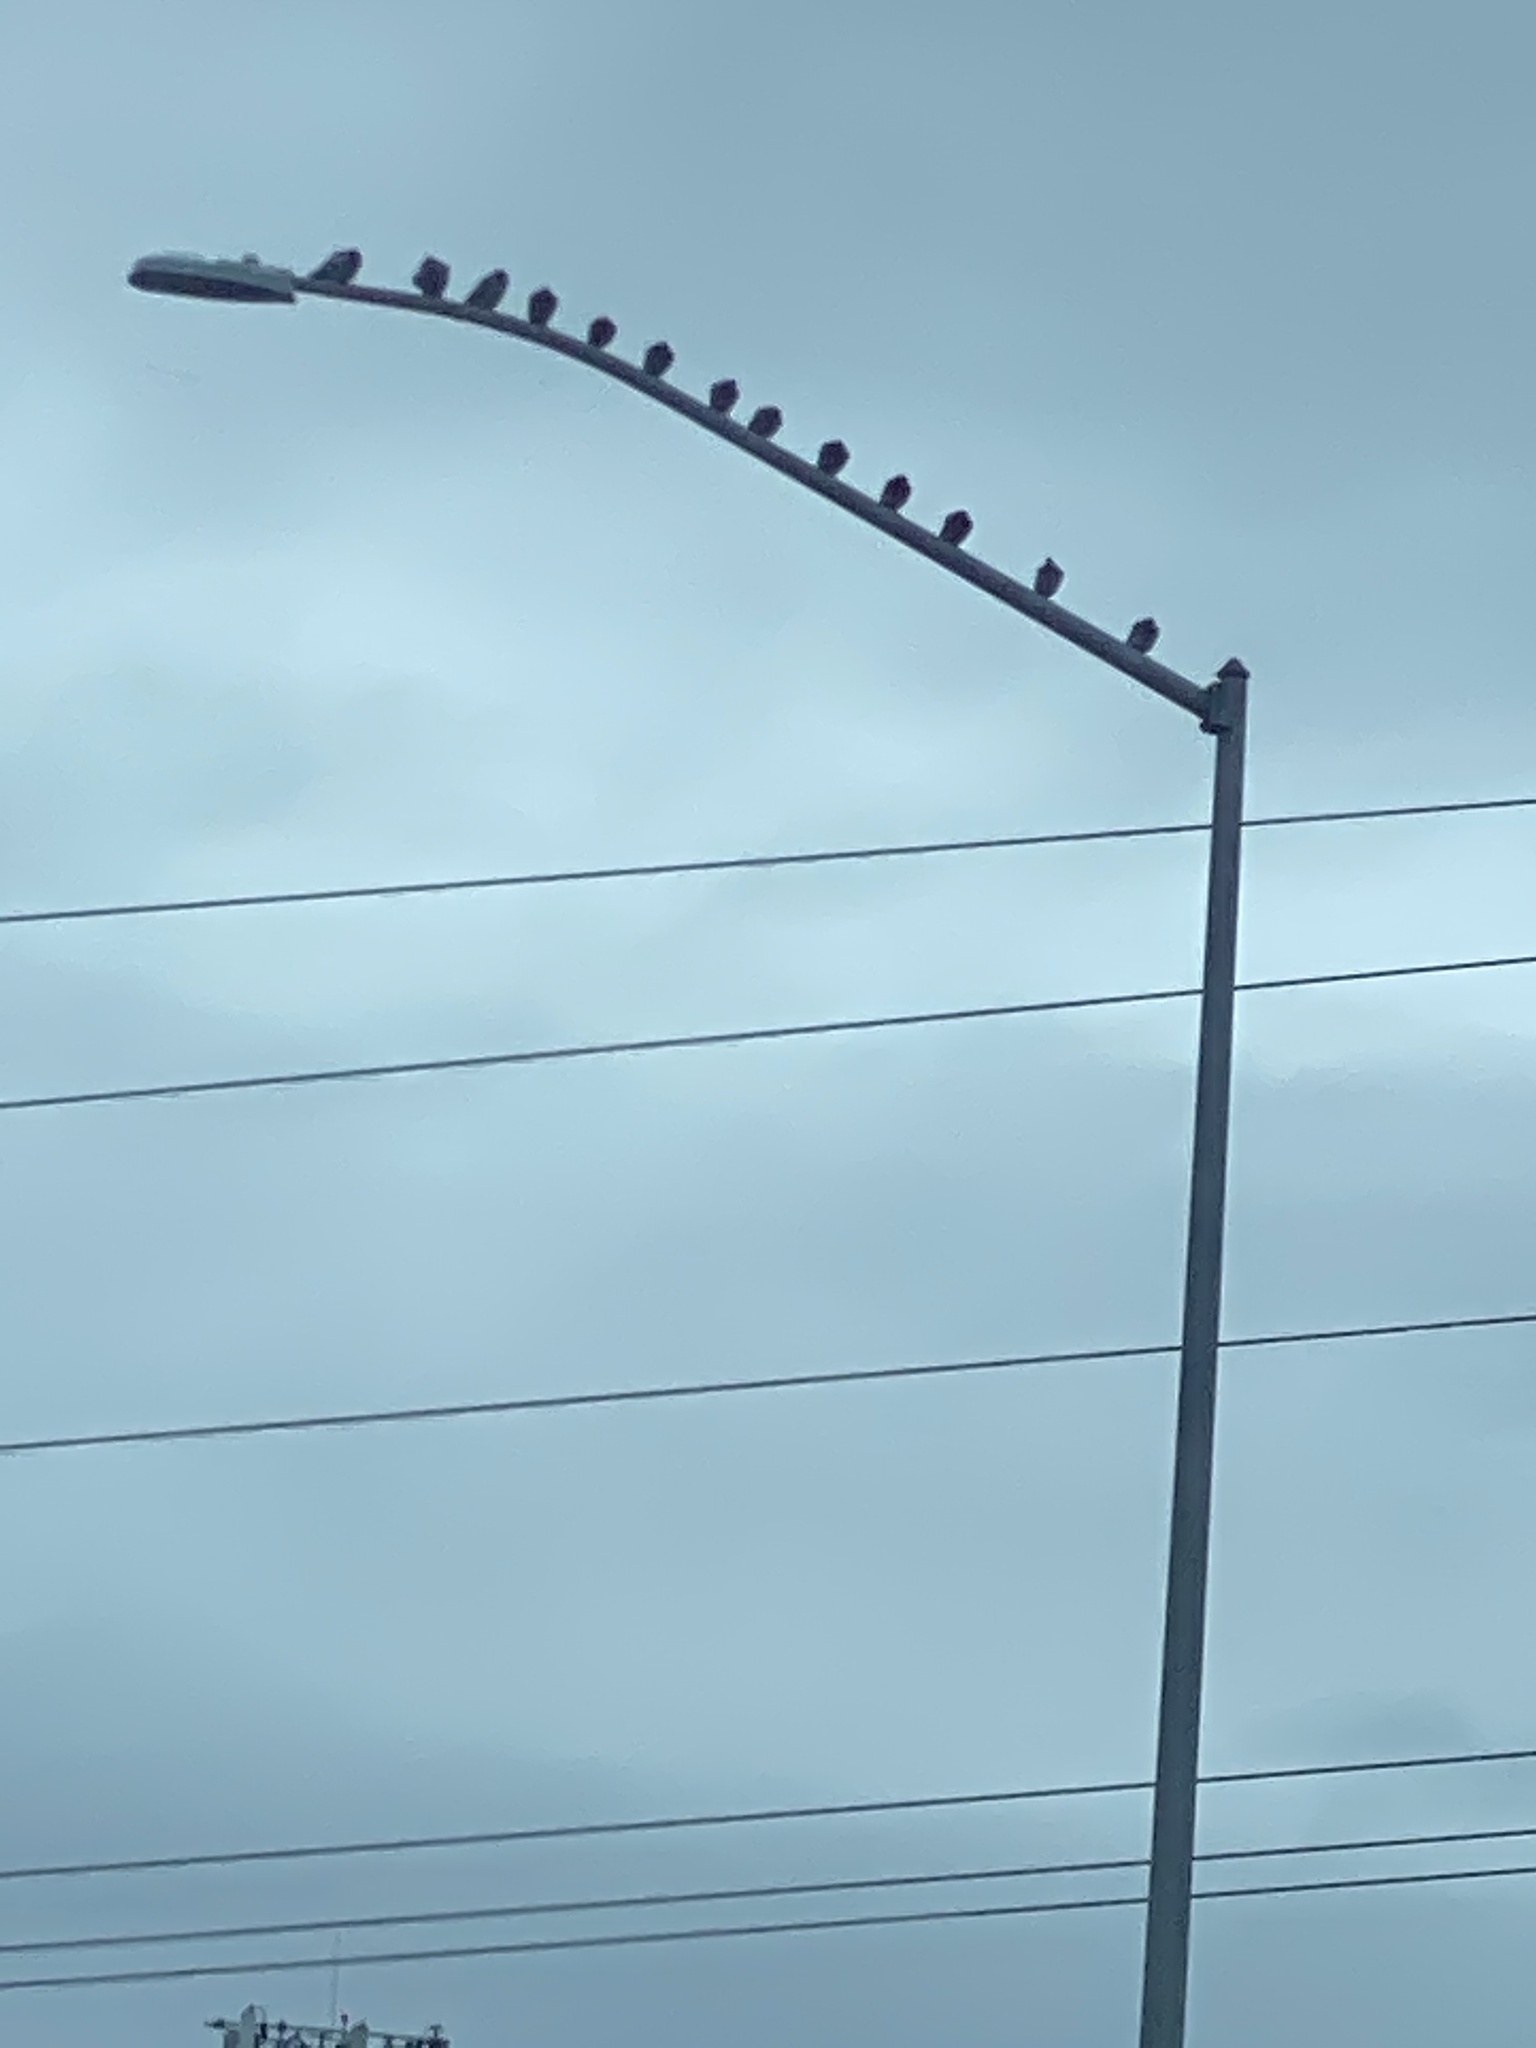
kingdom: Animalia
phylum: Chordata
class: Aves
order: Columbiformes
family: Columbidae
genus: Columba
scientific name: Columba livia
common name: Rock pigeon
